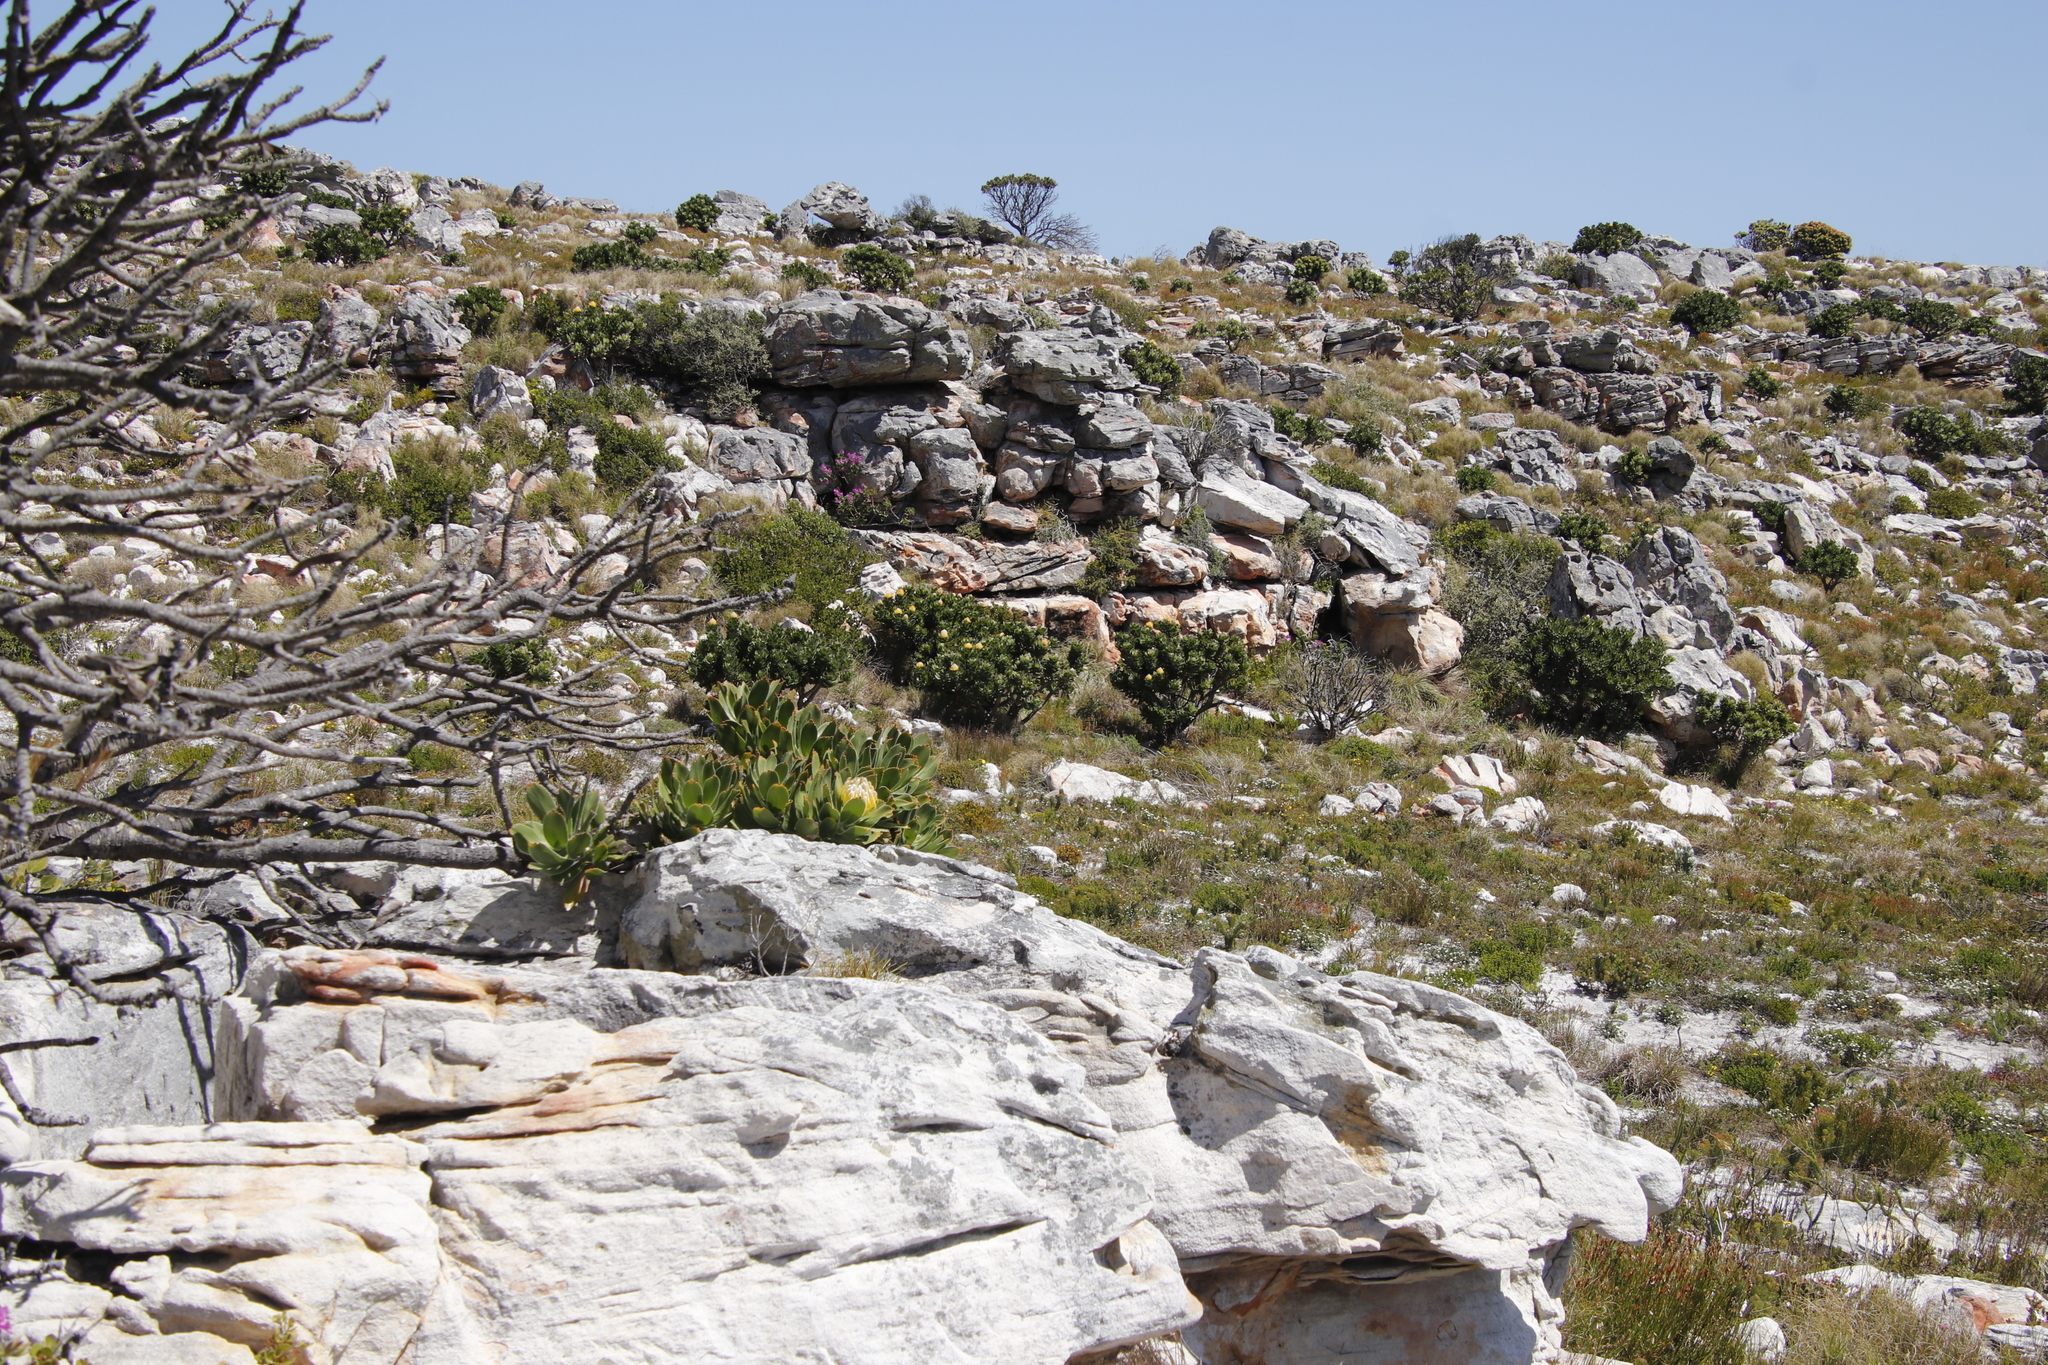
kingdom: Plantae
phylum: Tracheophyta
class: Magnoliopsida
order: Proteales
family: Proteaceae
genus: Leucospermum
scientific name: Leucospermum conocarpodendron
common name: Tree pincushion
